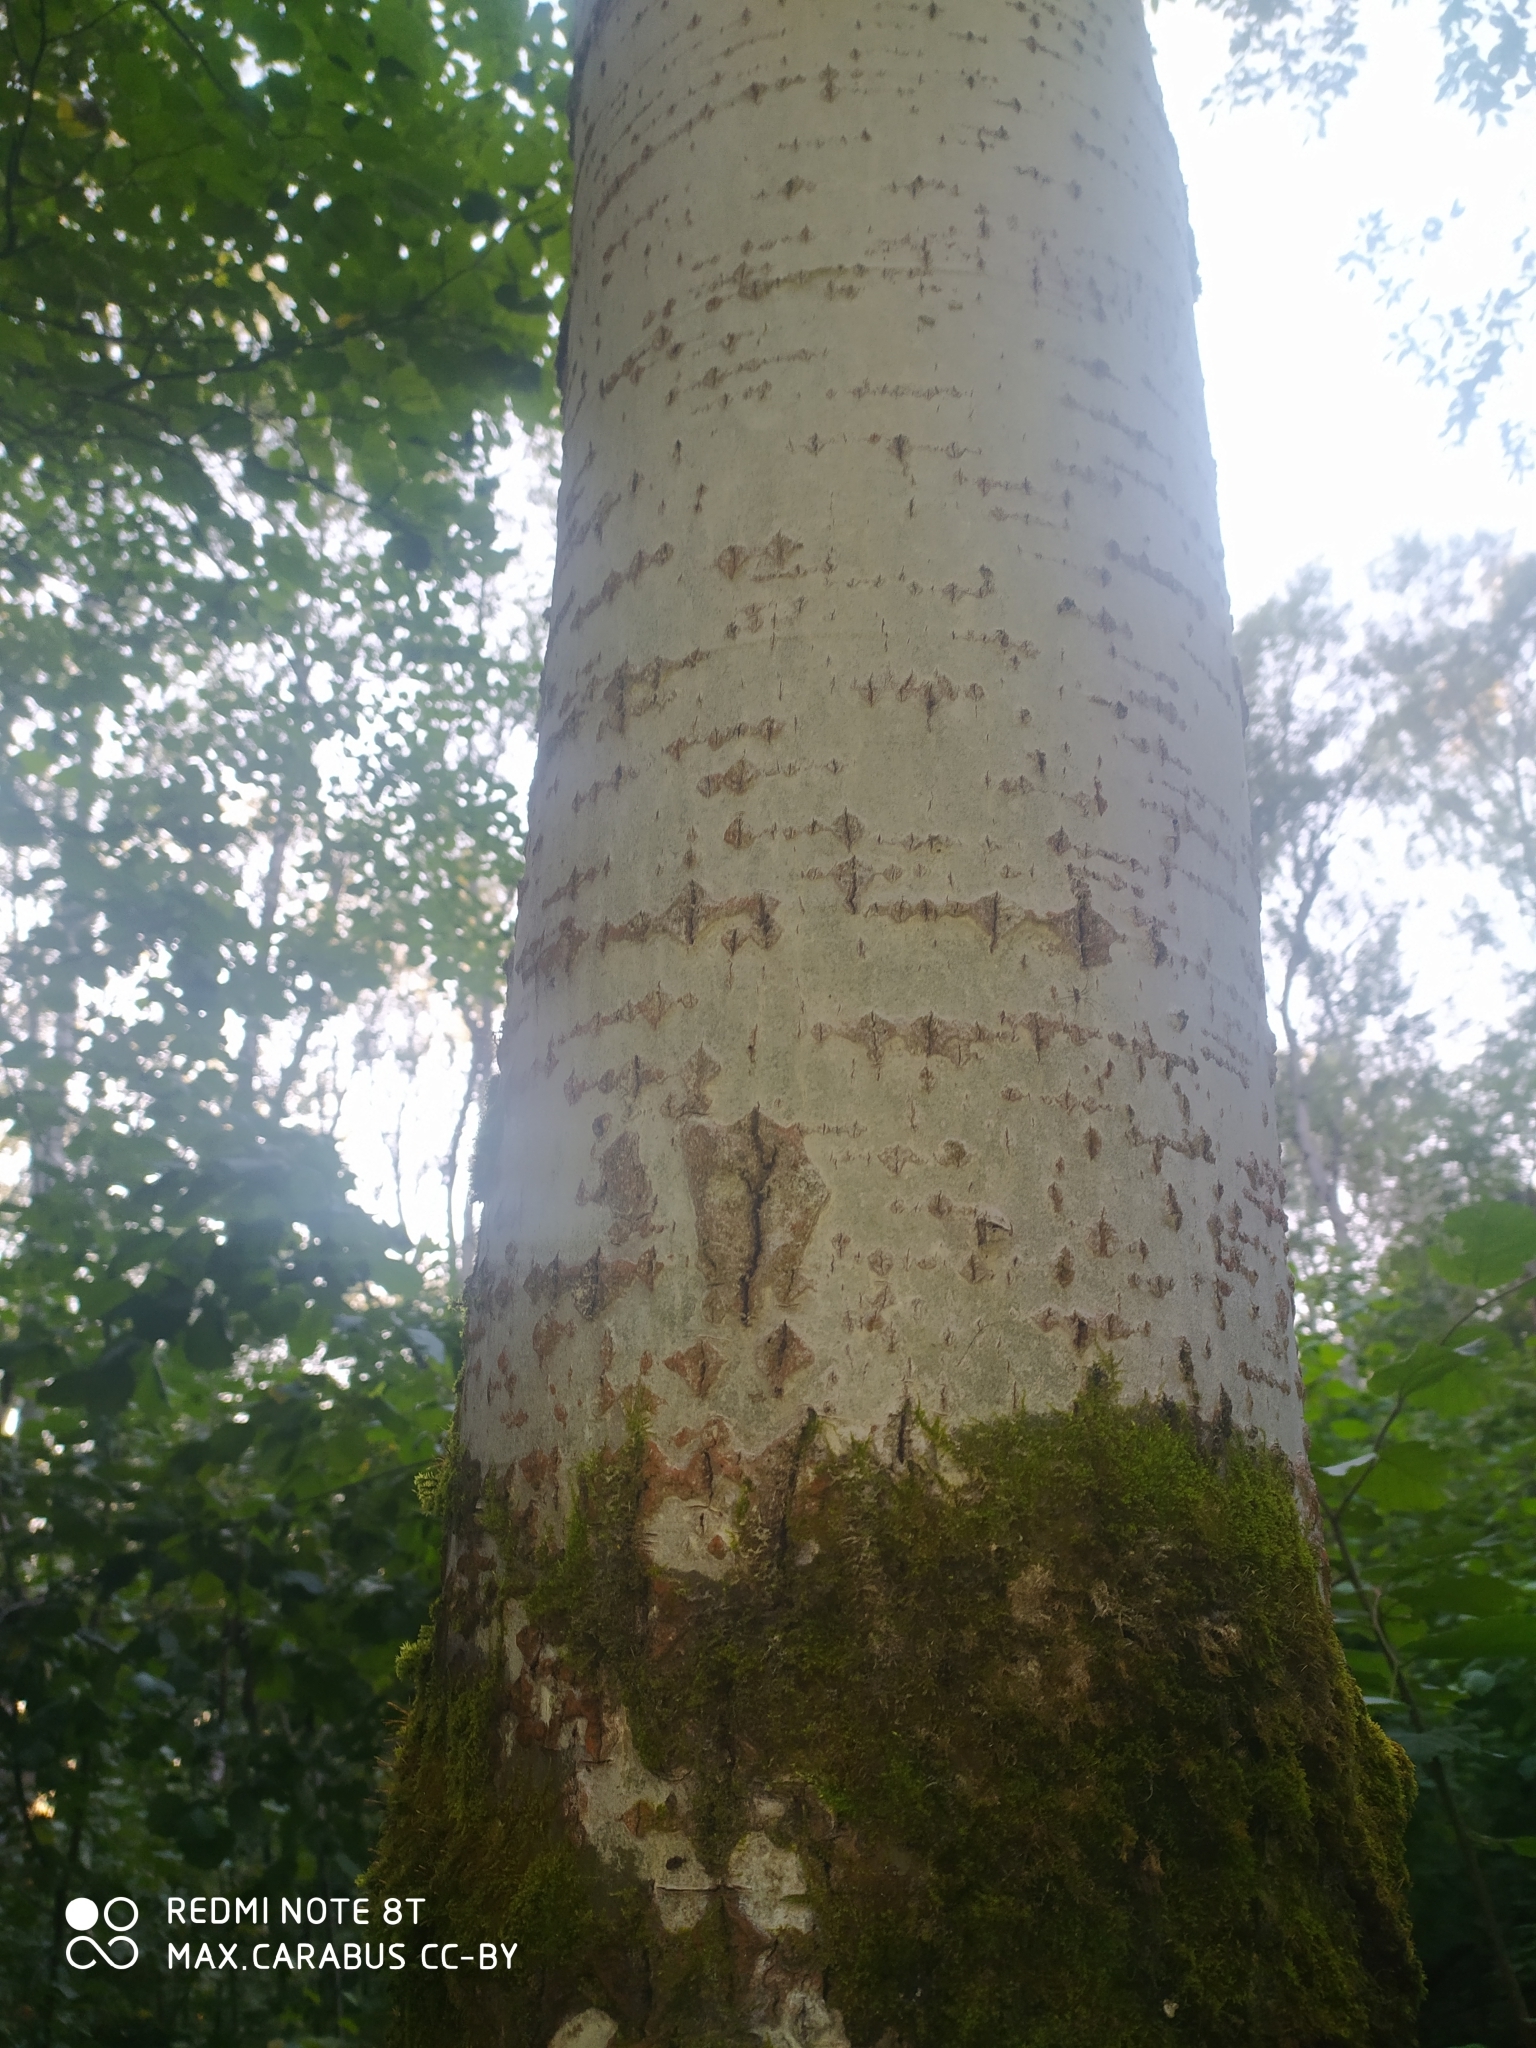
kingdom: Plantae
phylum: Tracheophyta
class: Magnoliopsida
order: Malpighiales
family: Salicaceae
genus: Populus
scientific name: Populus tremula
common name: European aspen
